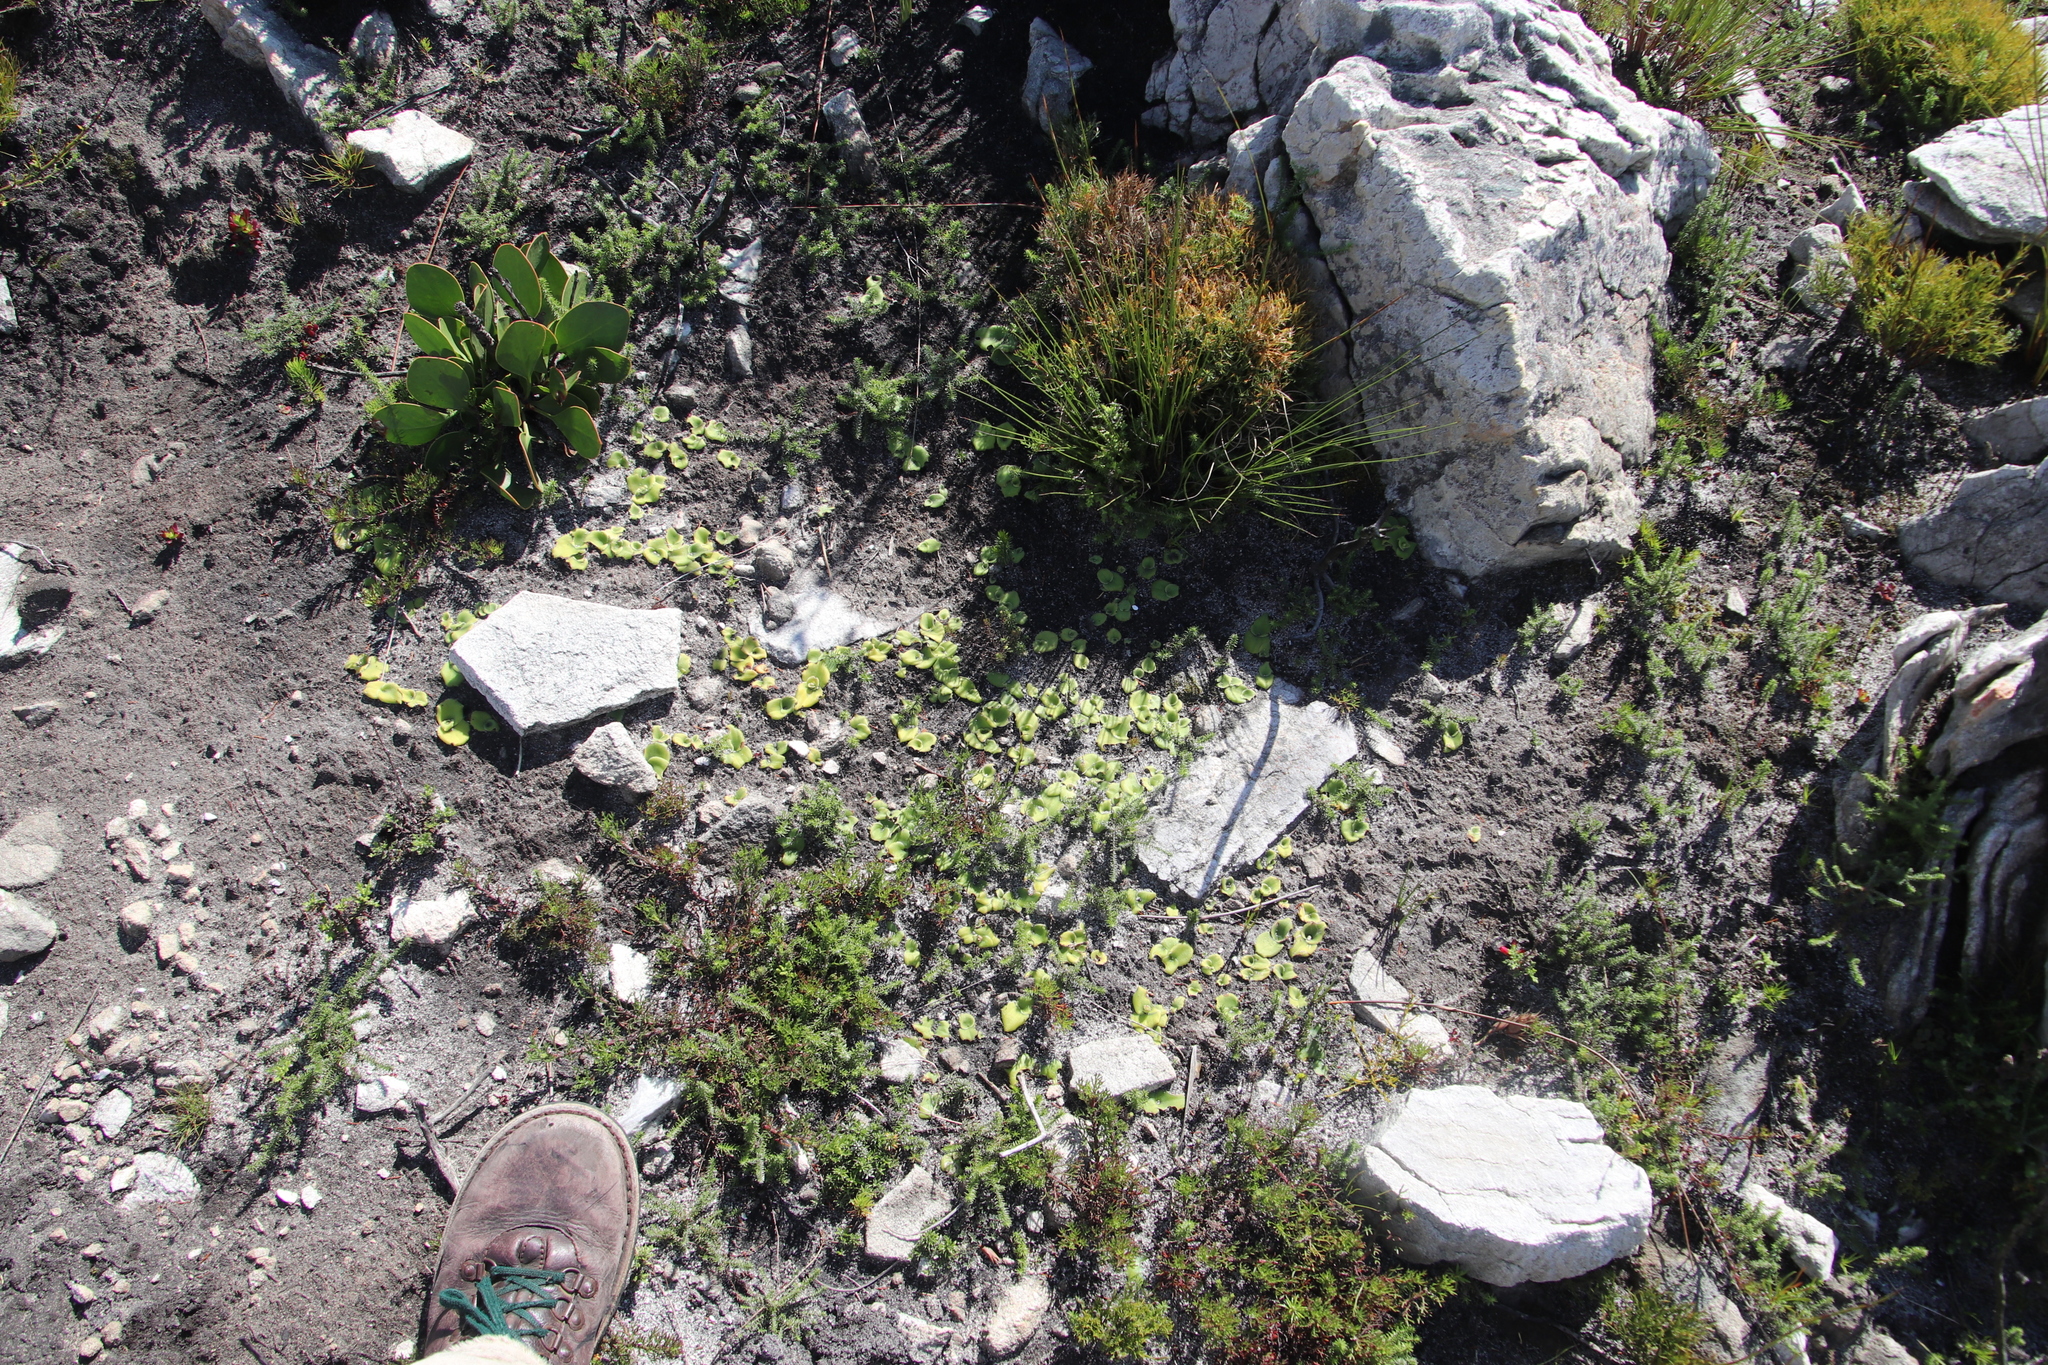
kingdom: Plantae
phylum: Tracheophyta
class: Liliopsida
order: Asparagales
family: Orchidaceae
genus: Satyrium
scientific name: Satyrium humile
